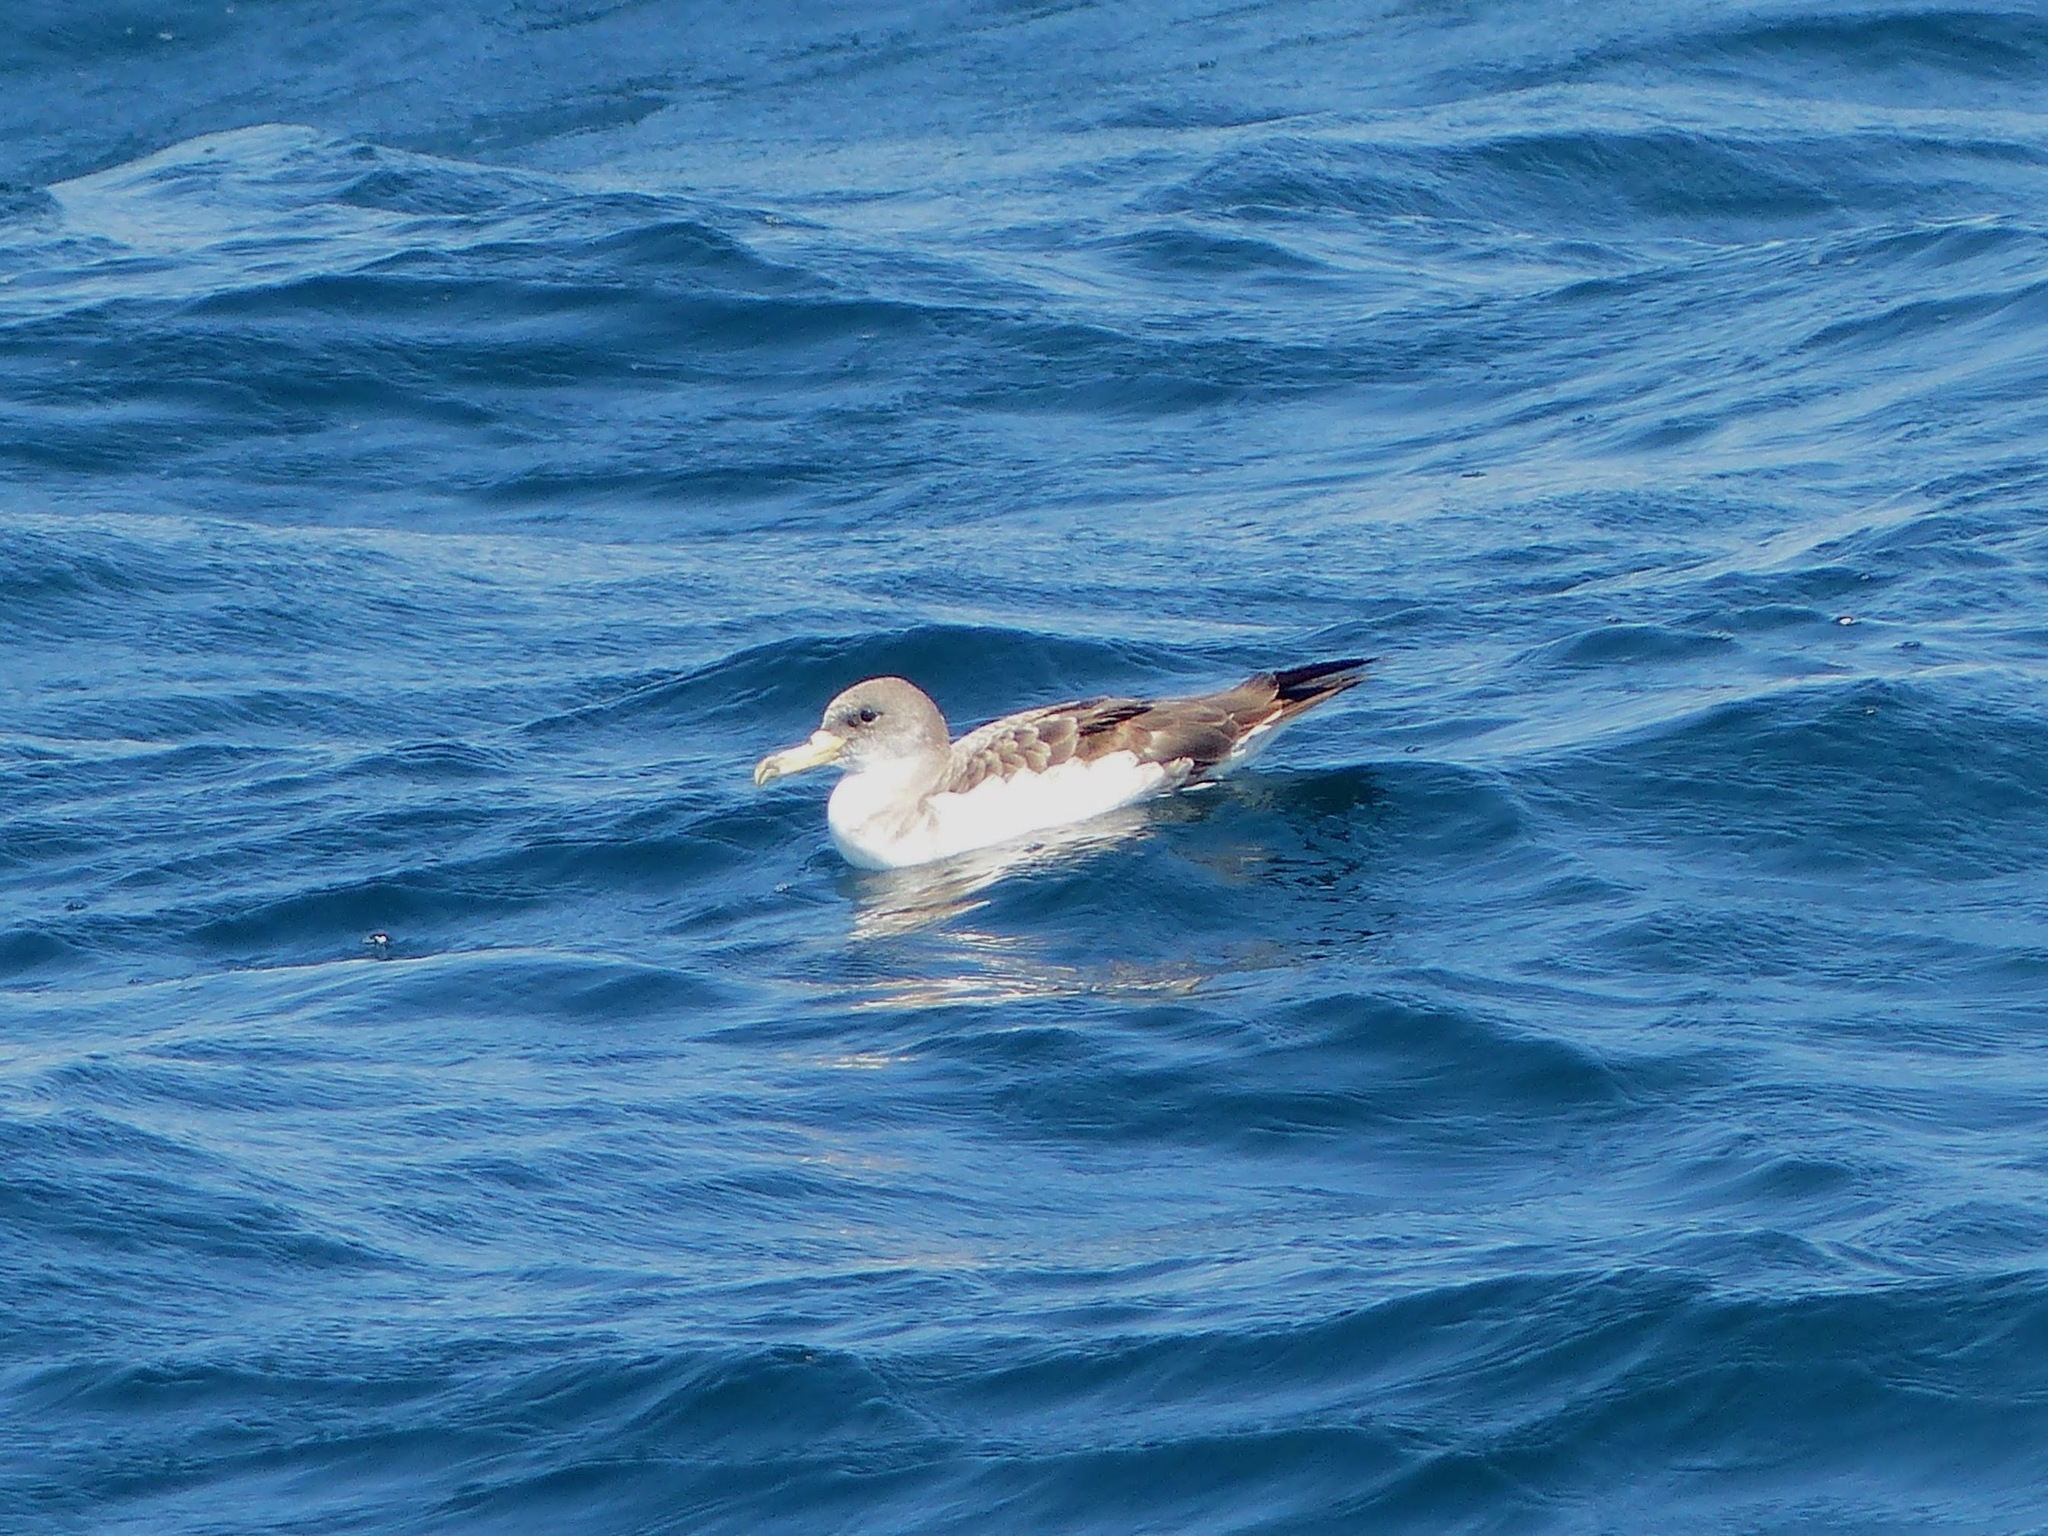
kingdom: Animalia
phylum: Chordata
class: Aves
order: Procellariiformes
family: Procellariidae
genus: Calonectris
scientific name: Calonectris diomedea
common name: Cory's shearwater
